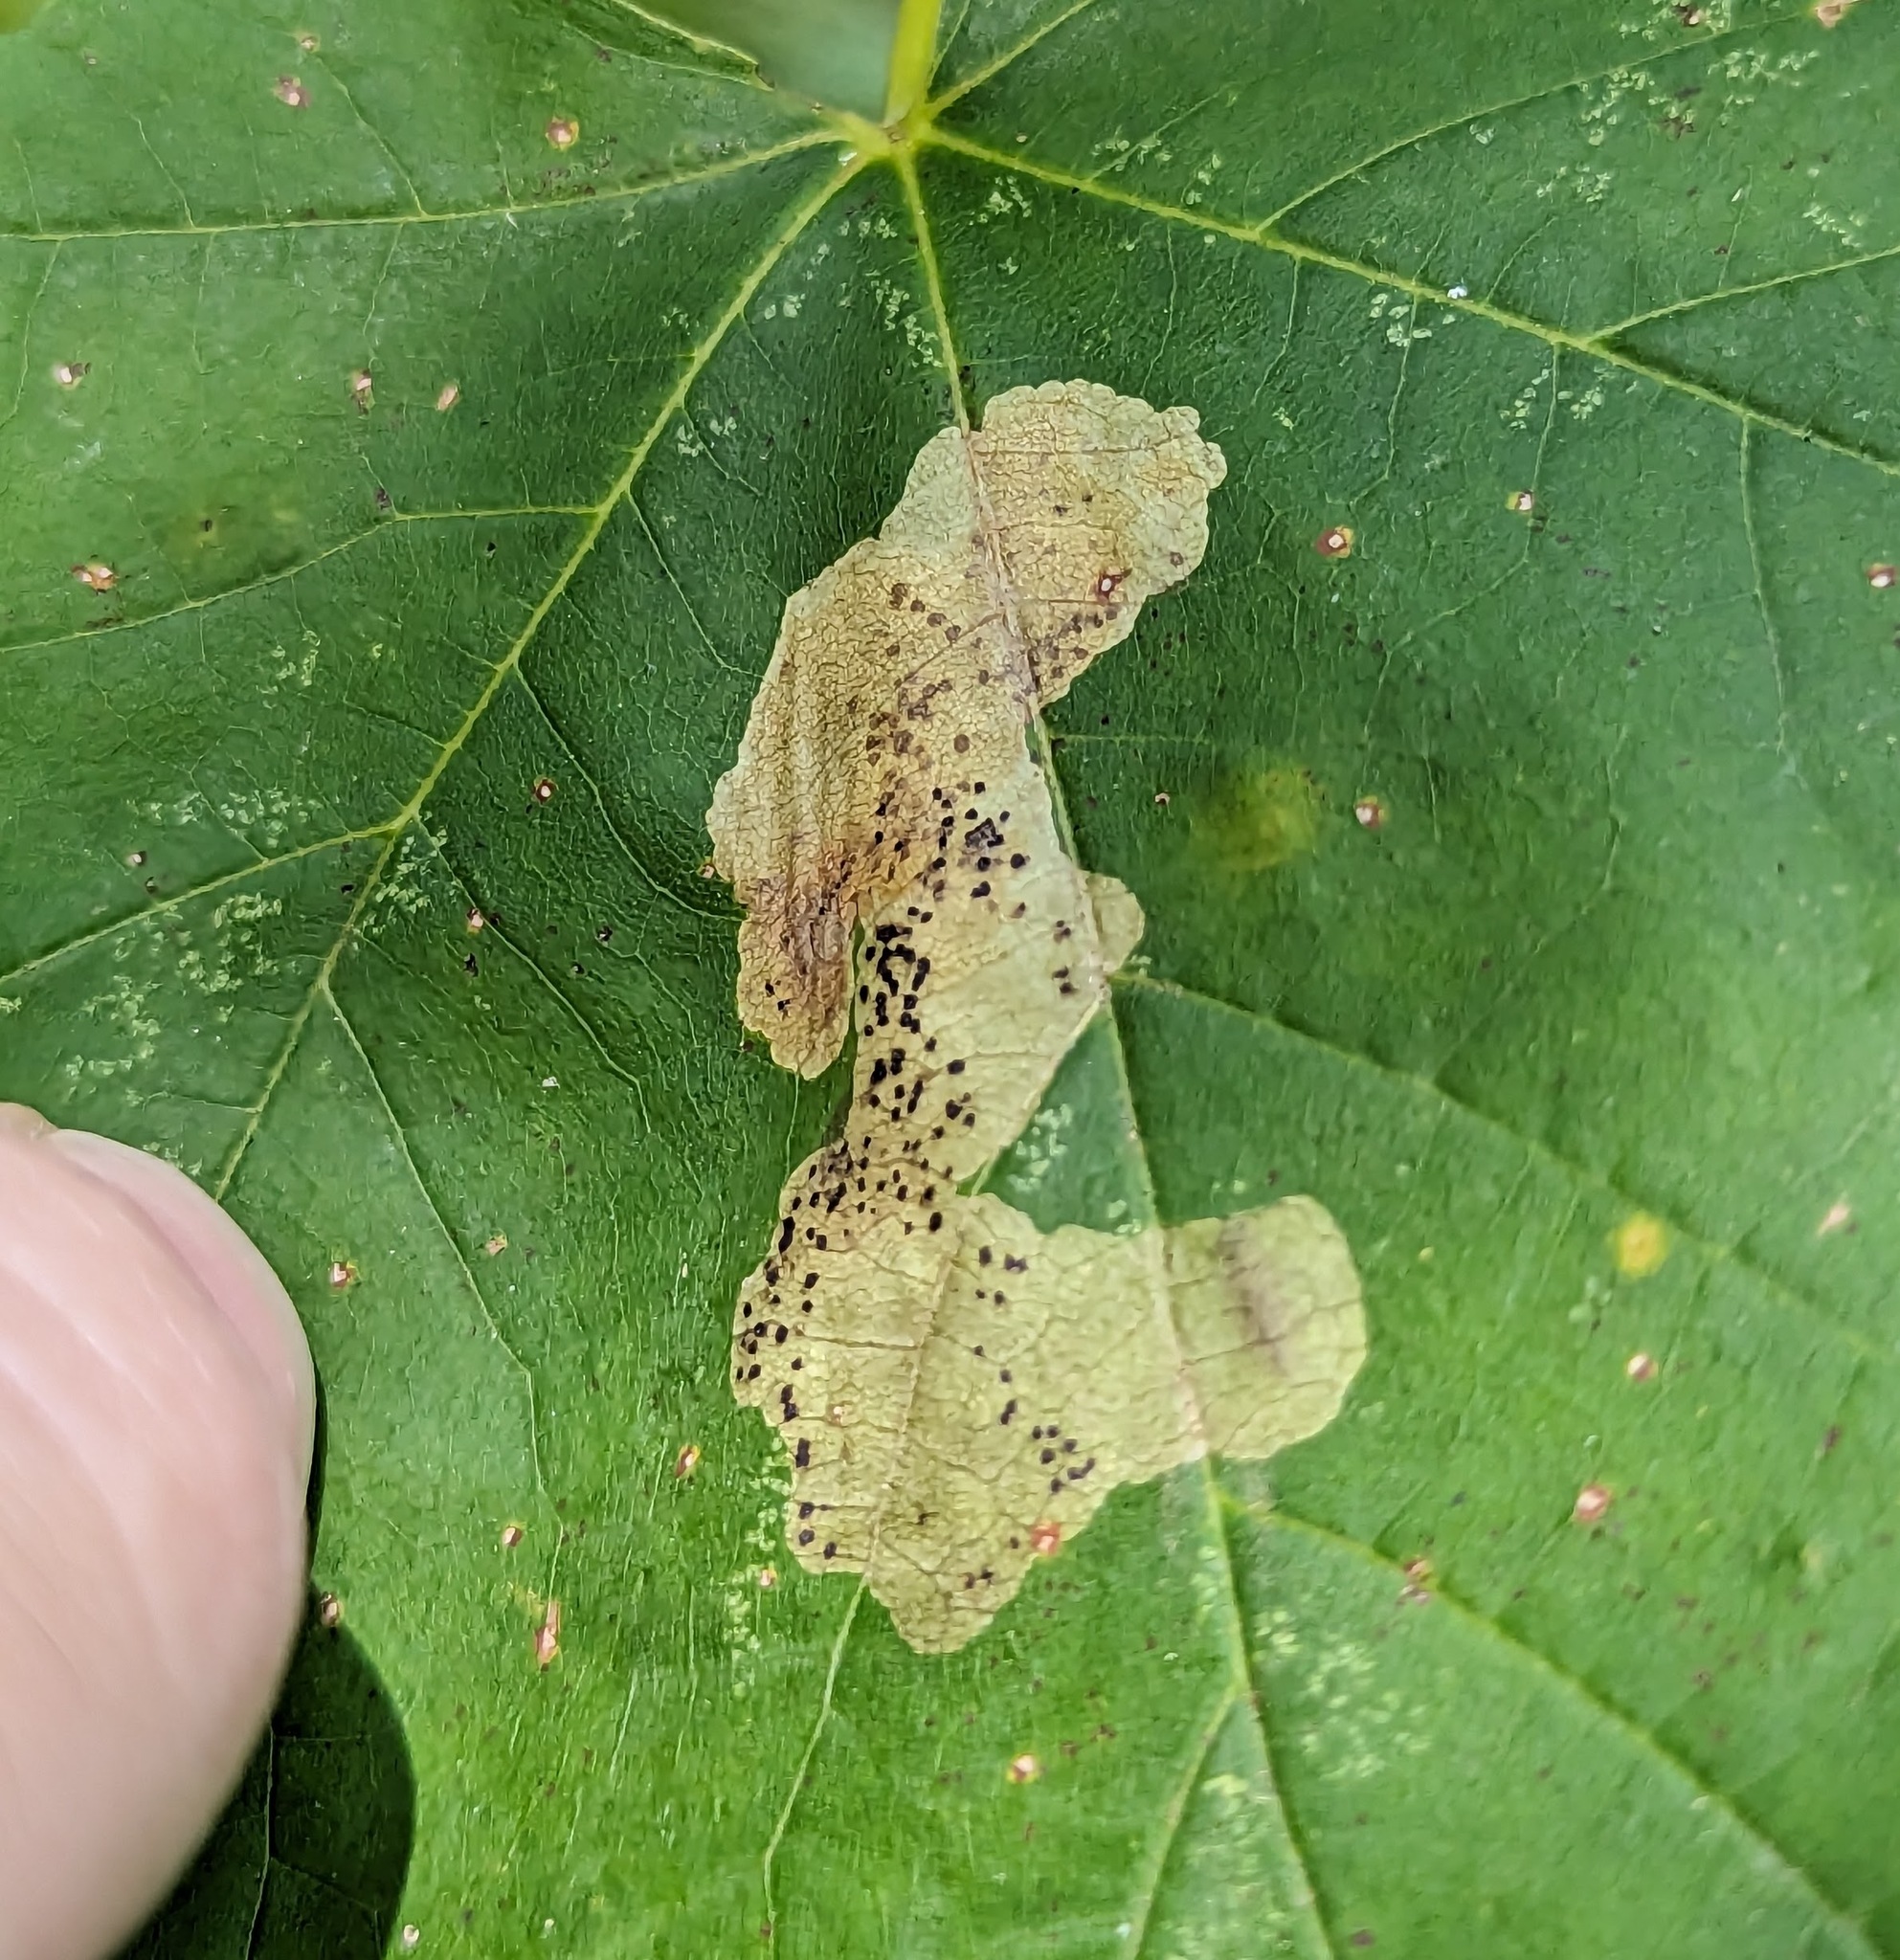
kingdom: Animalia
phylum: Arthropoda
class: Insecta
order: Lepidoptera
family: Gracillariidae
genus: Cameraria
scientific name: Cameraria aceriella
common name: Maple leafblotch miner
